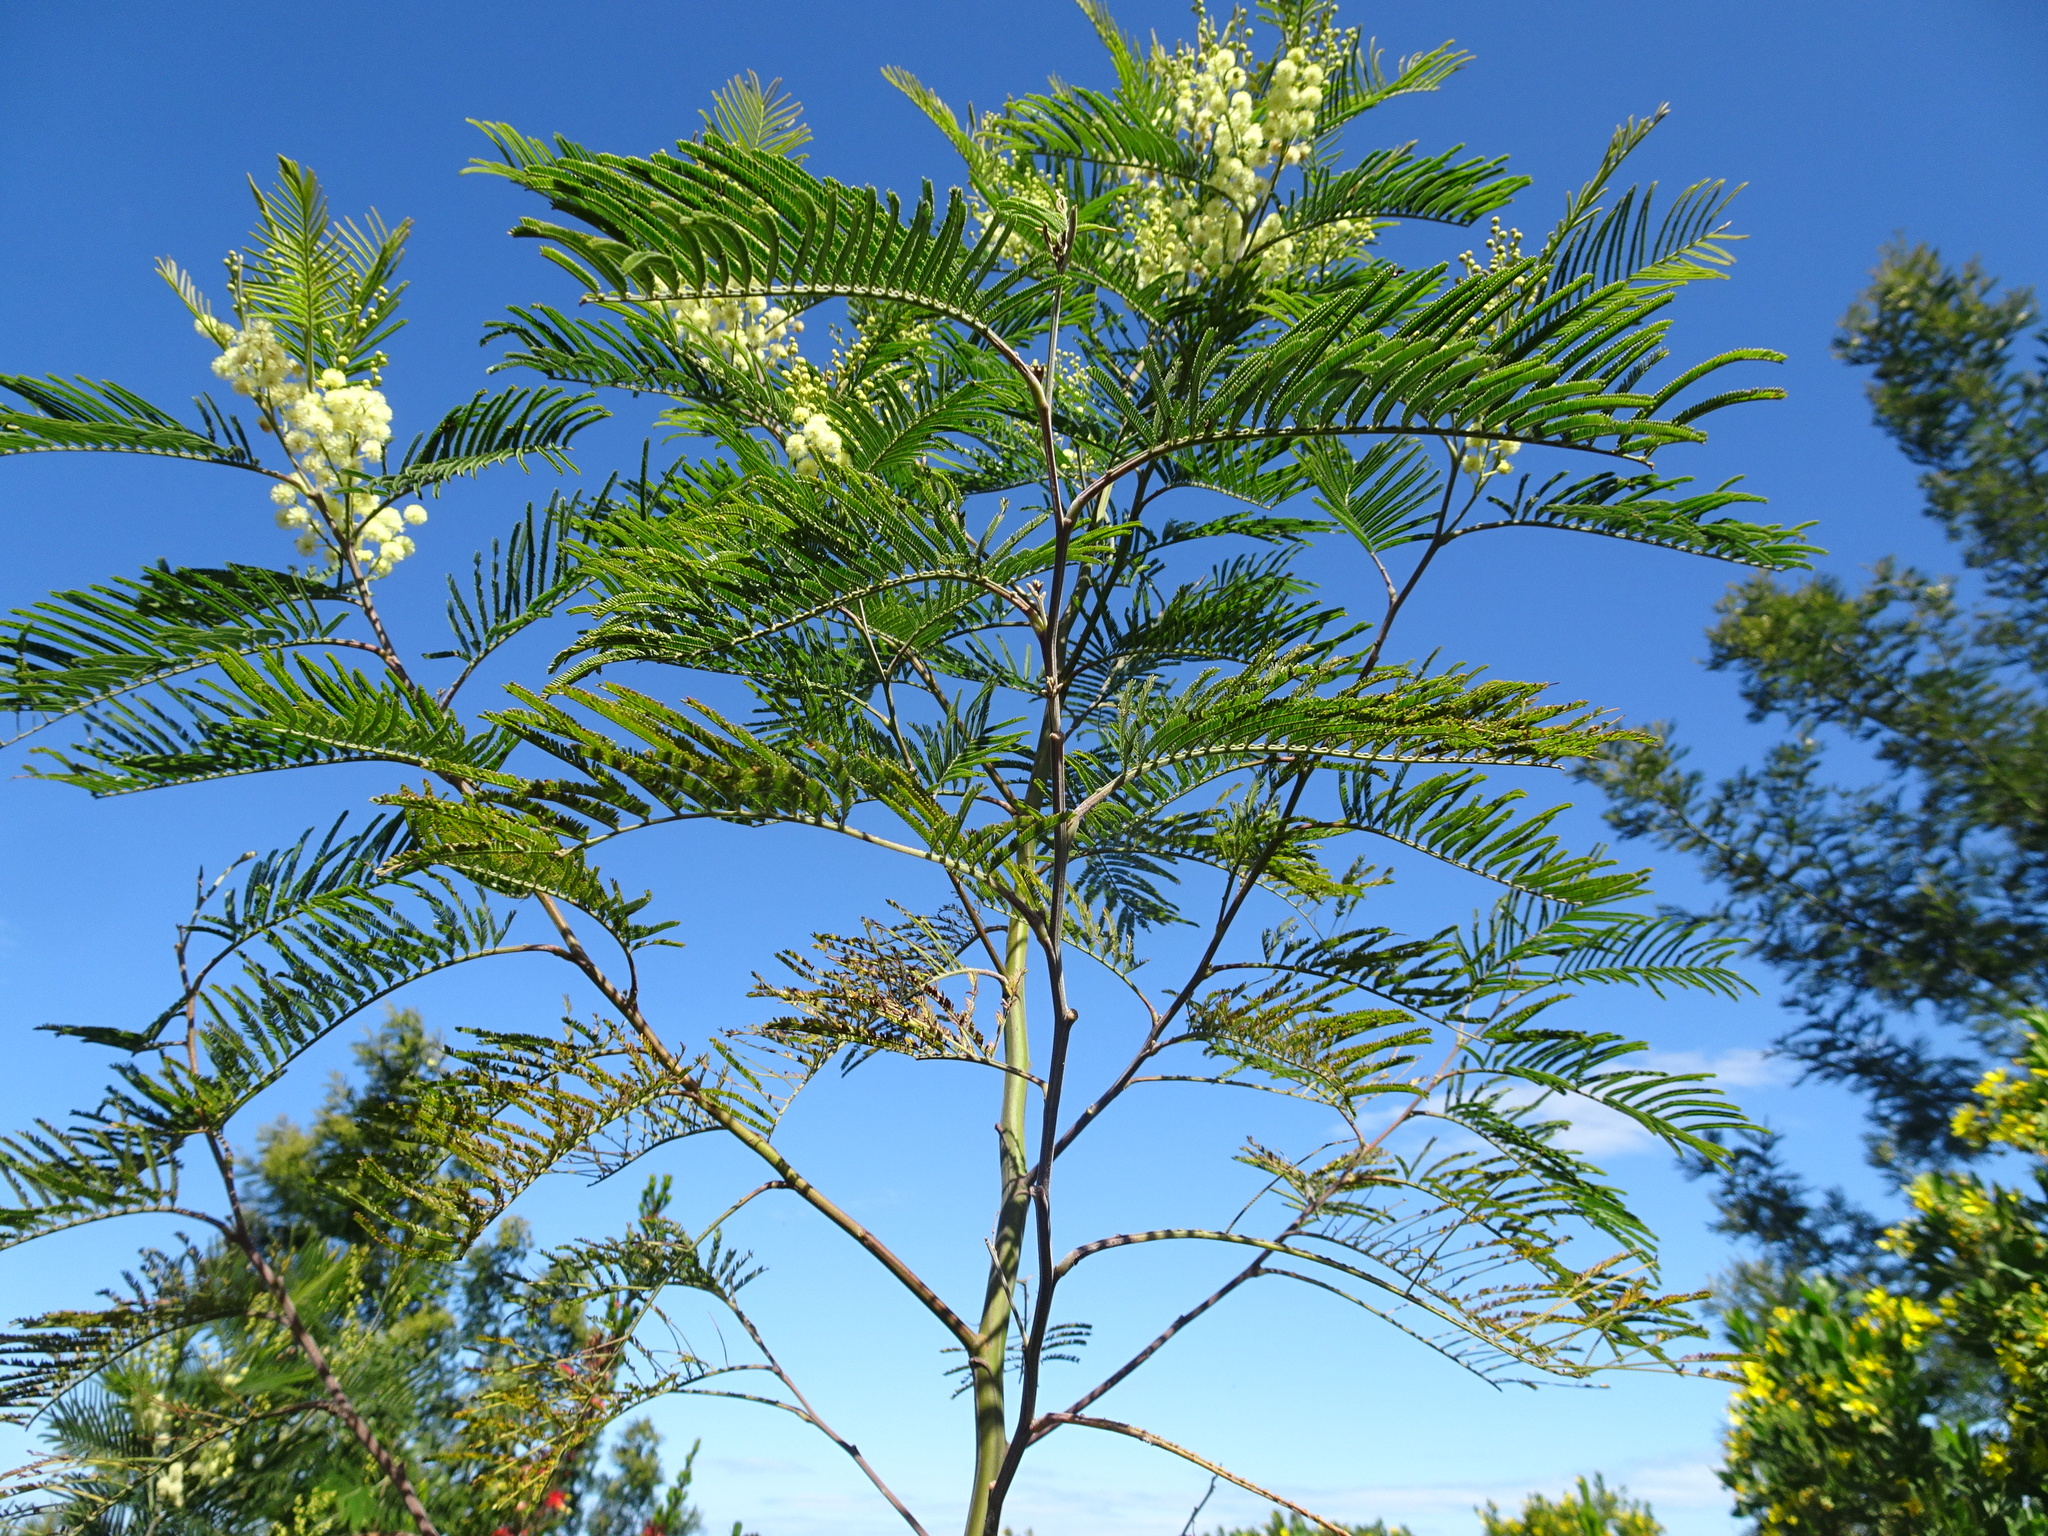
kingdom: Plantae
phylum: Tracheophyta
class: Magnoliopsida
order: Fabales
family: Fabaceae
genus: Acacia
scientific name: Acacia mearnsii
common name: Black wattle
